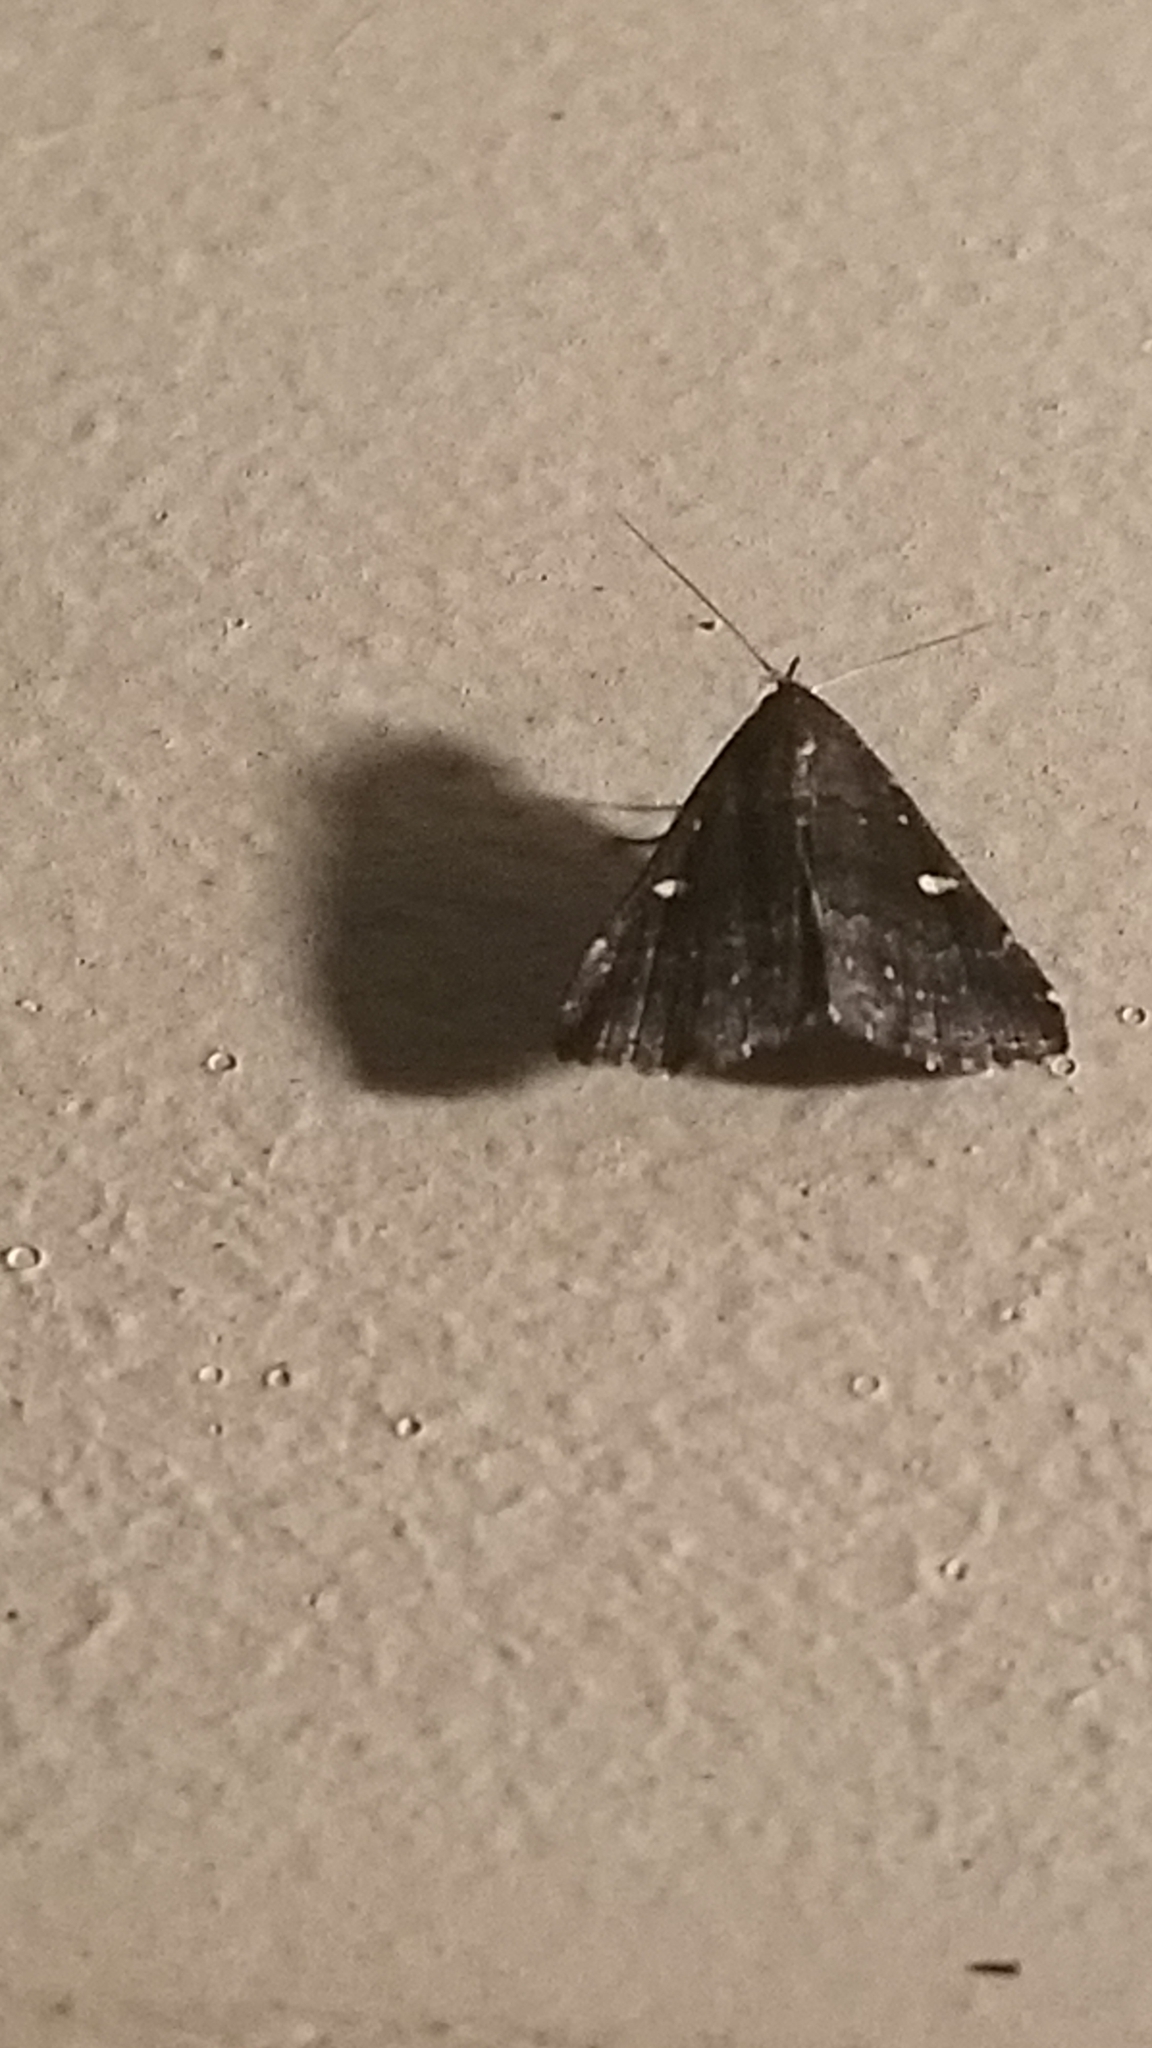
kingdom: Animalia
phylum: Arthropoda
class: Insecta
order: Lepidoptera
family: Erebidae
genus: Tetanolita
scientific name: Tetanolita mynesalis
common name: Smoky tetanolita moth
